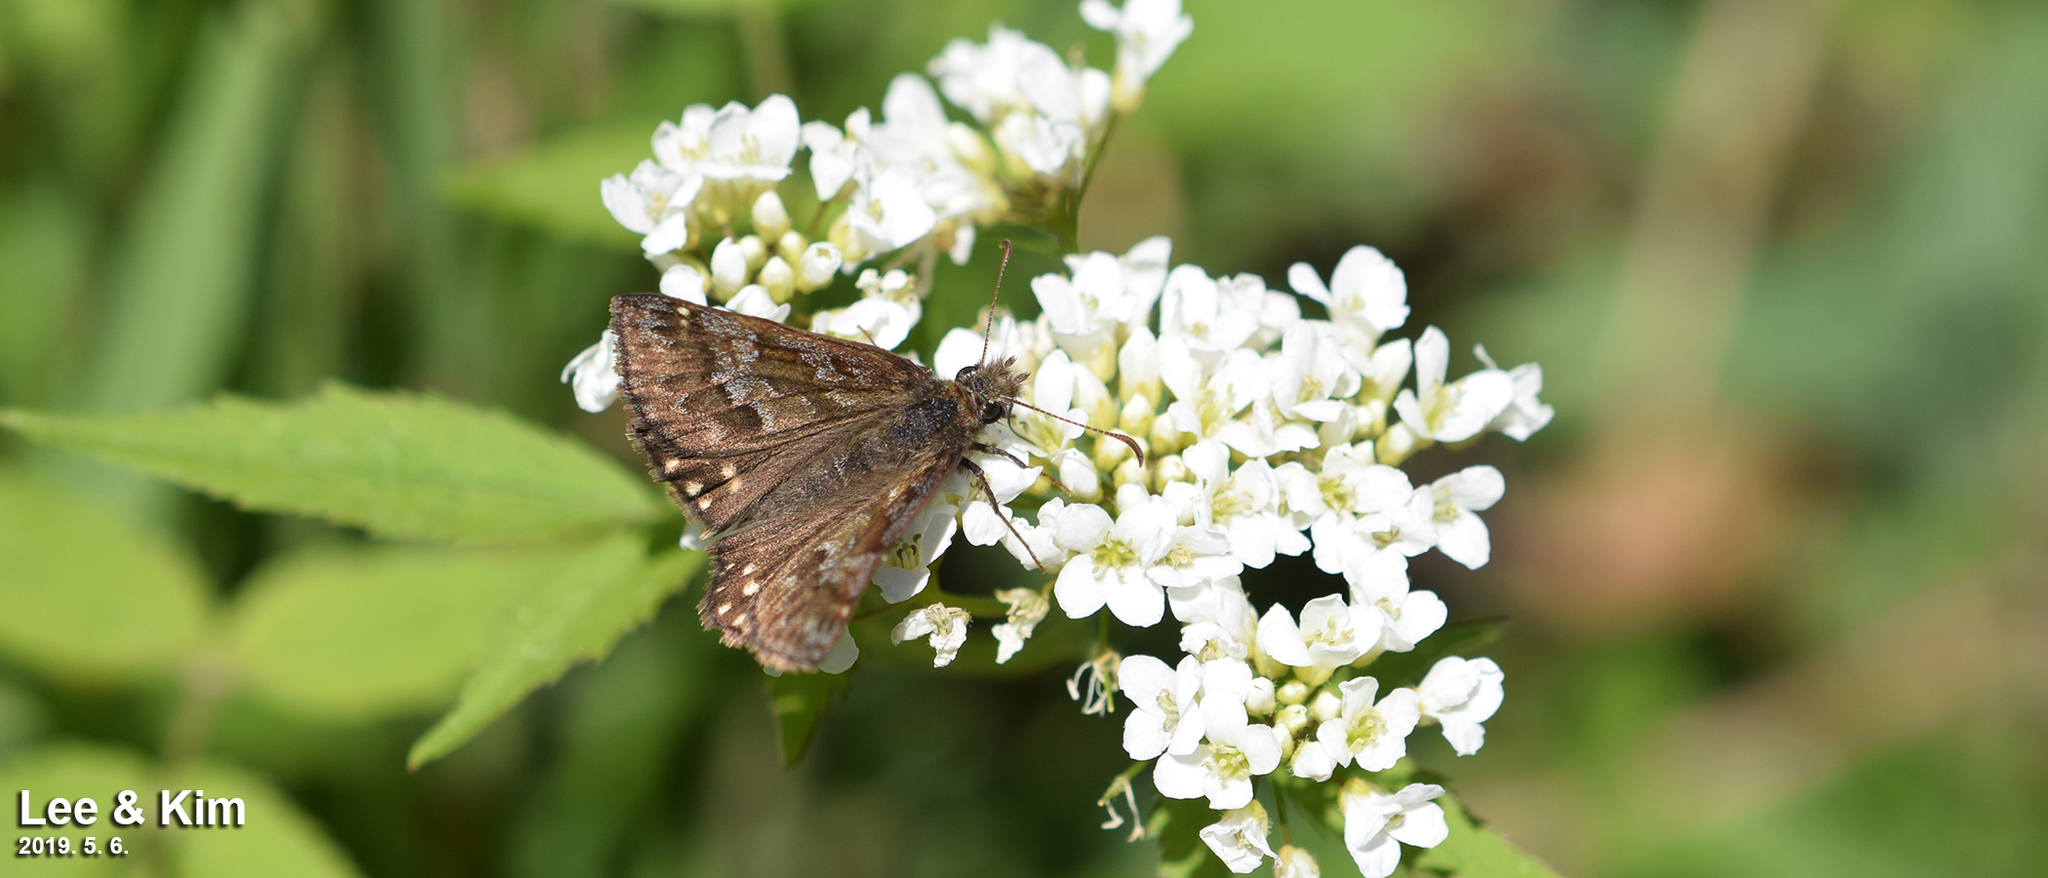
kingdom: Animalia
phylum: Arthropoda
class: Insecta
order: Lepidoptera
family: Hesperiidae
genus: Erynnis
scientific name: Erynnis montanus
